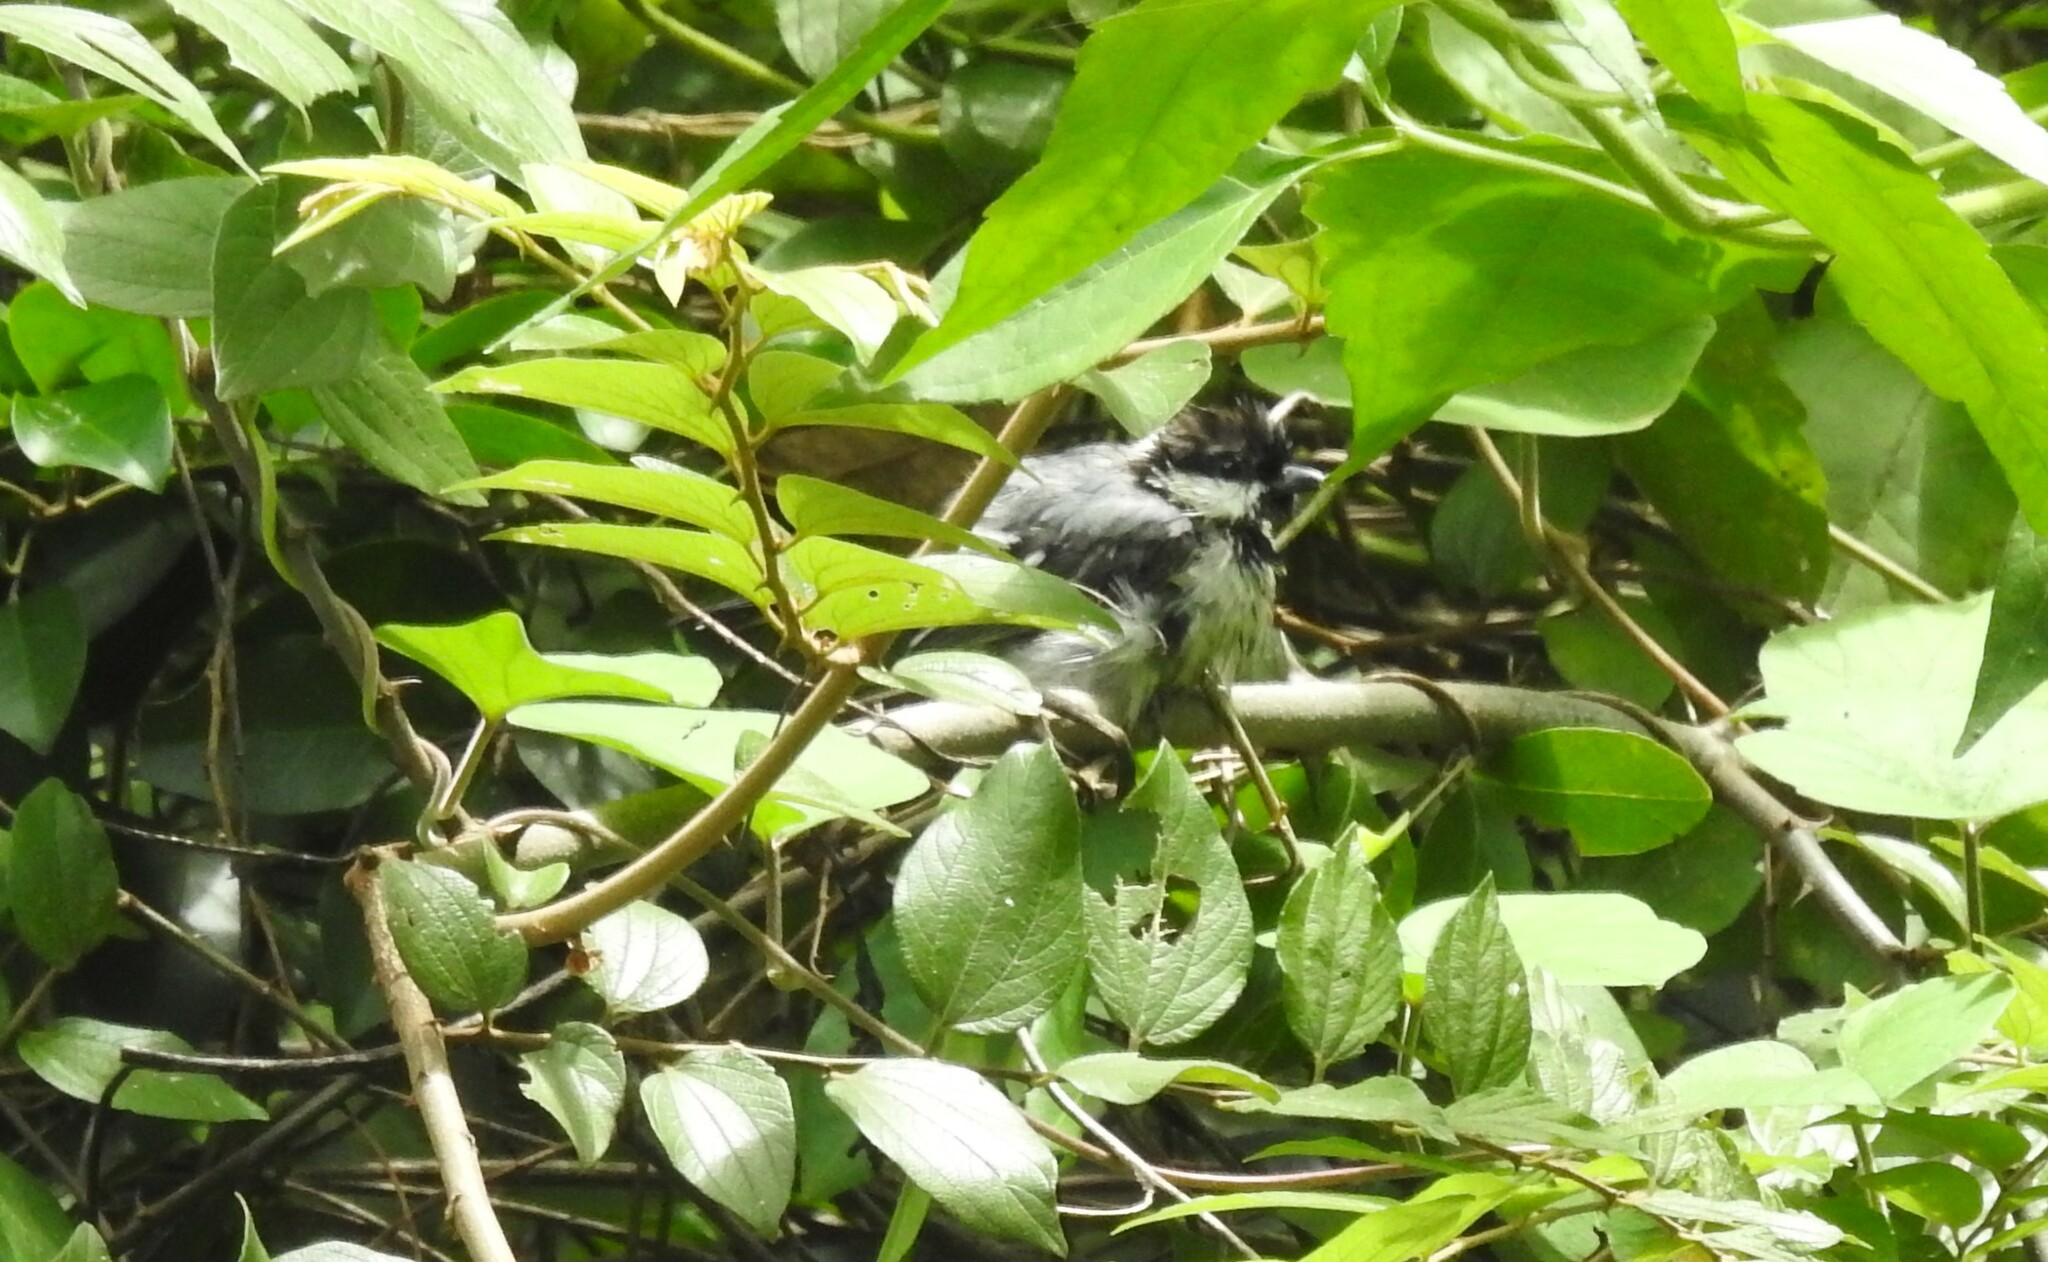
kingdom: Animalia
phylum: Chordata
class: Aves
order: Passeriformes
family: Paridae
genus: Parus
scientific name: Parus cinereus
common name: Cinereous tit
